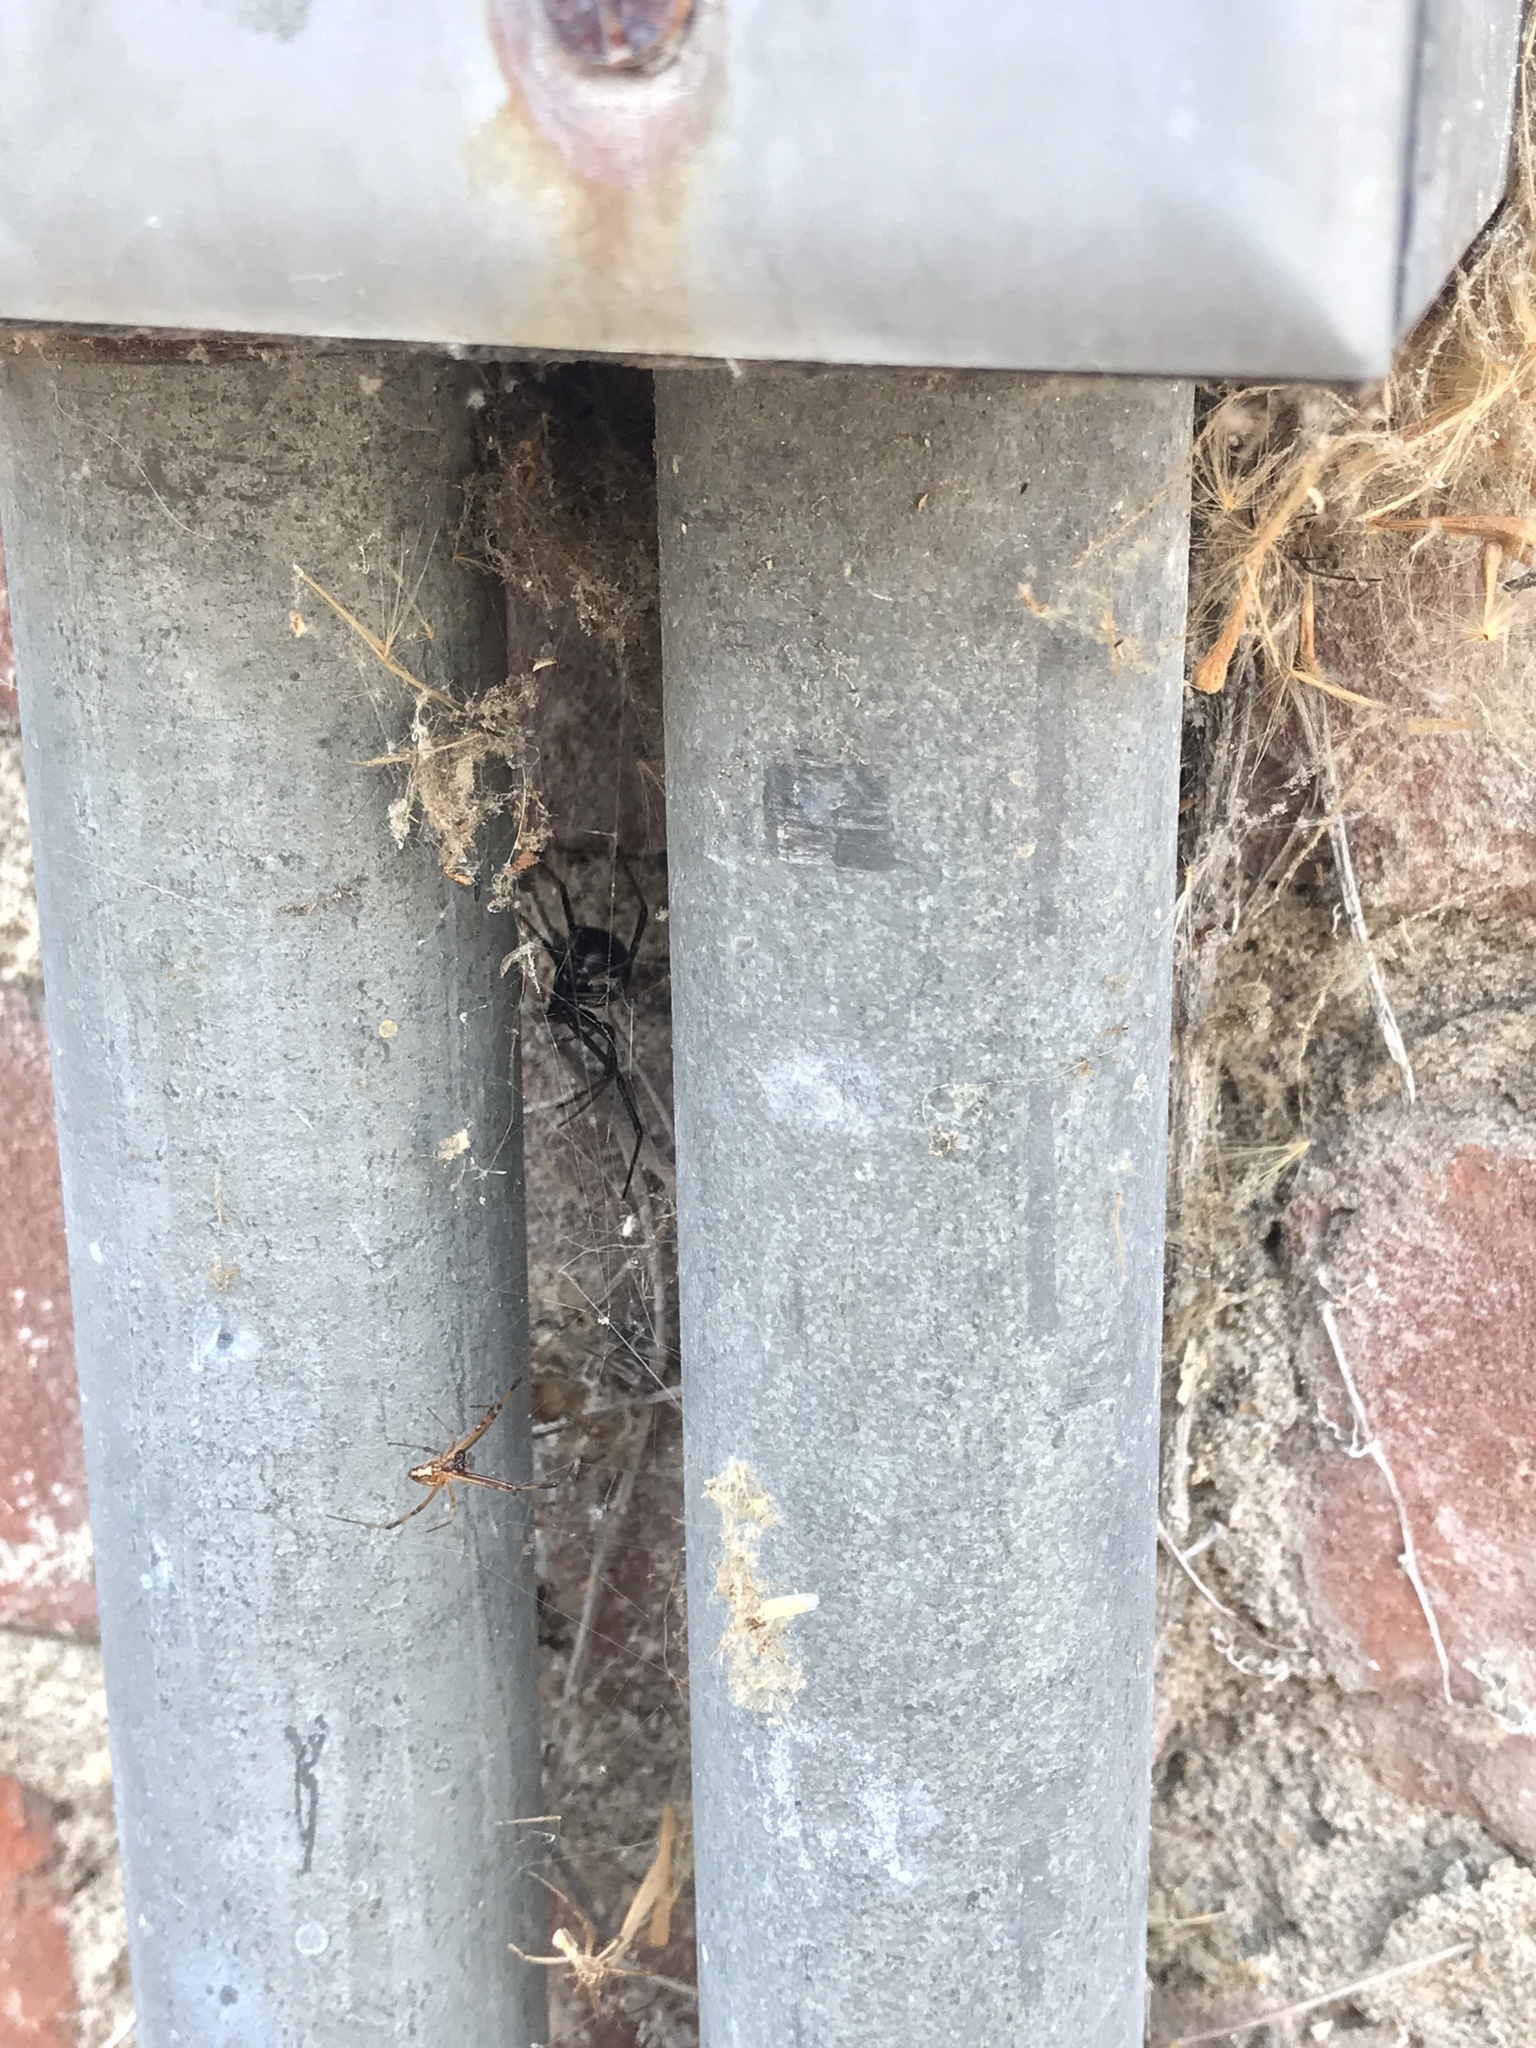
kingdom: Animalia
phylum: Arthropoda
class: Arachnida
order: Araneae
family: Theridiidae
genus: Latrodectus
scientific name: Latrodectus hesperus
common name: Western black widow
